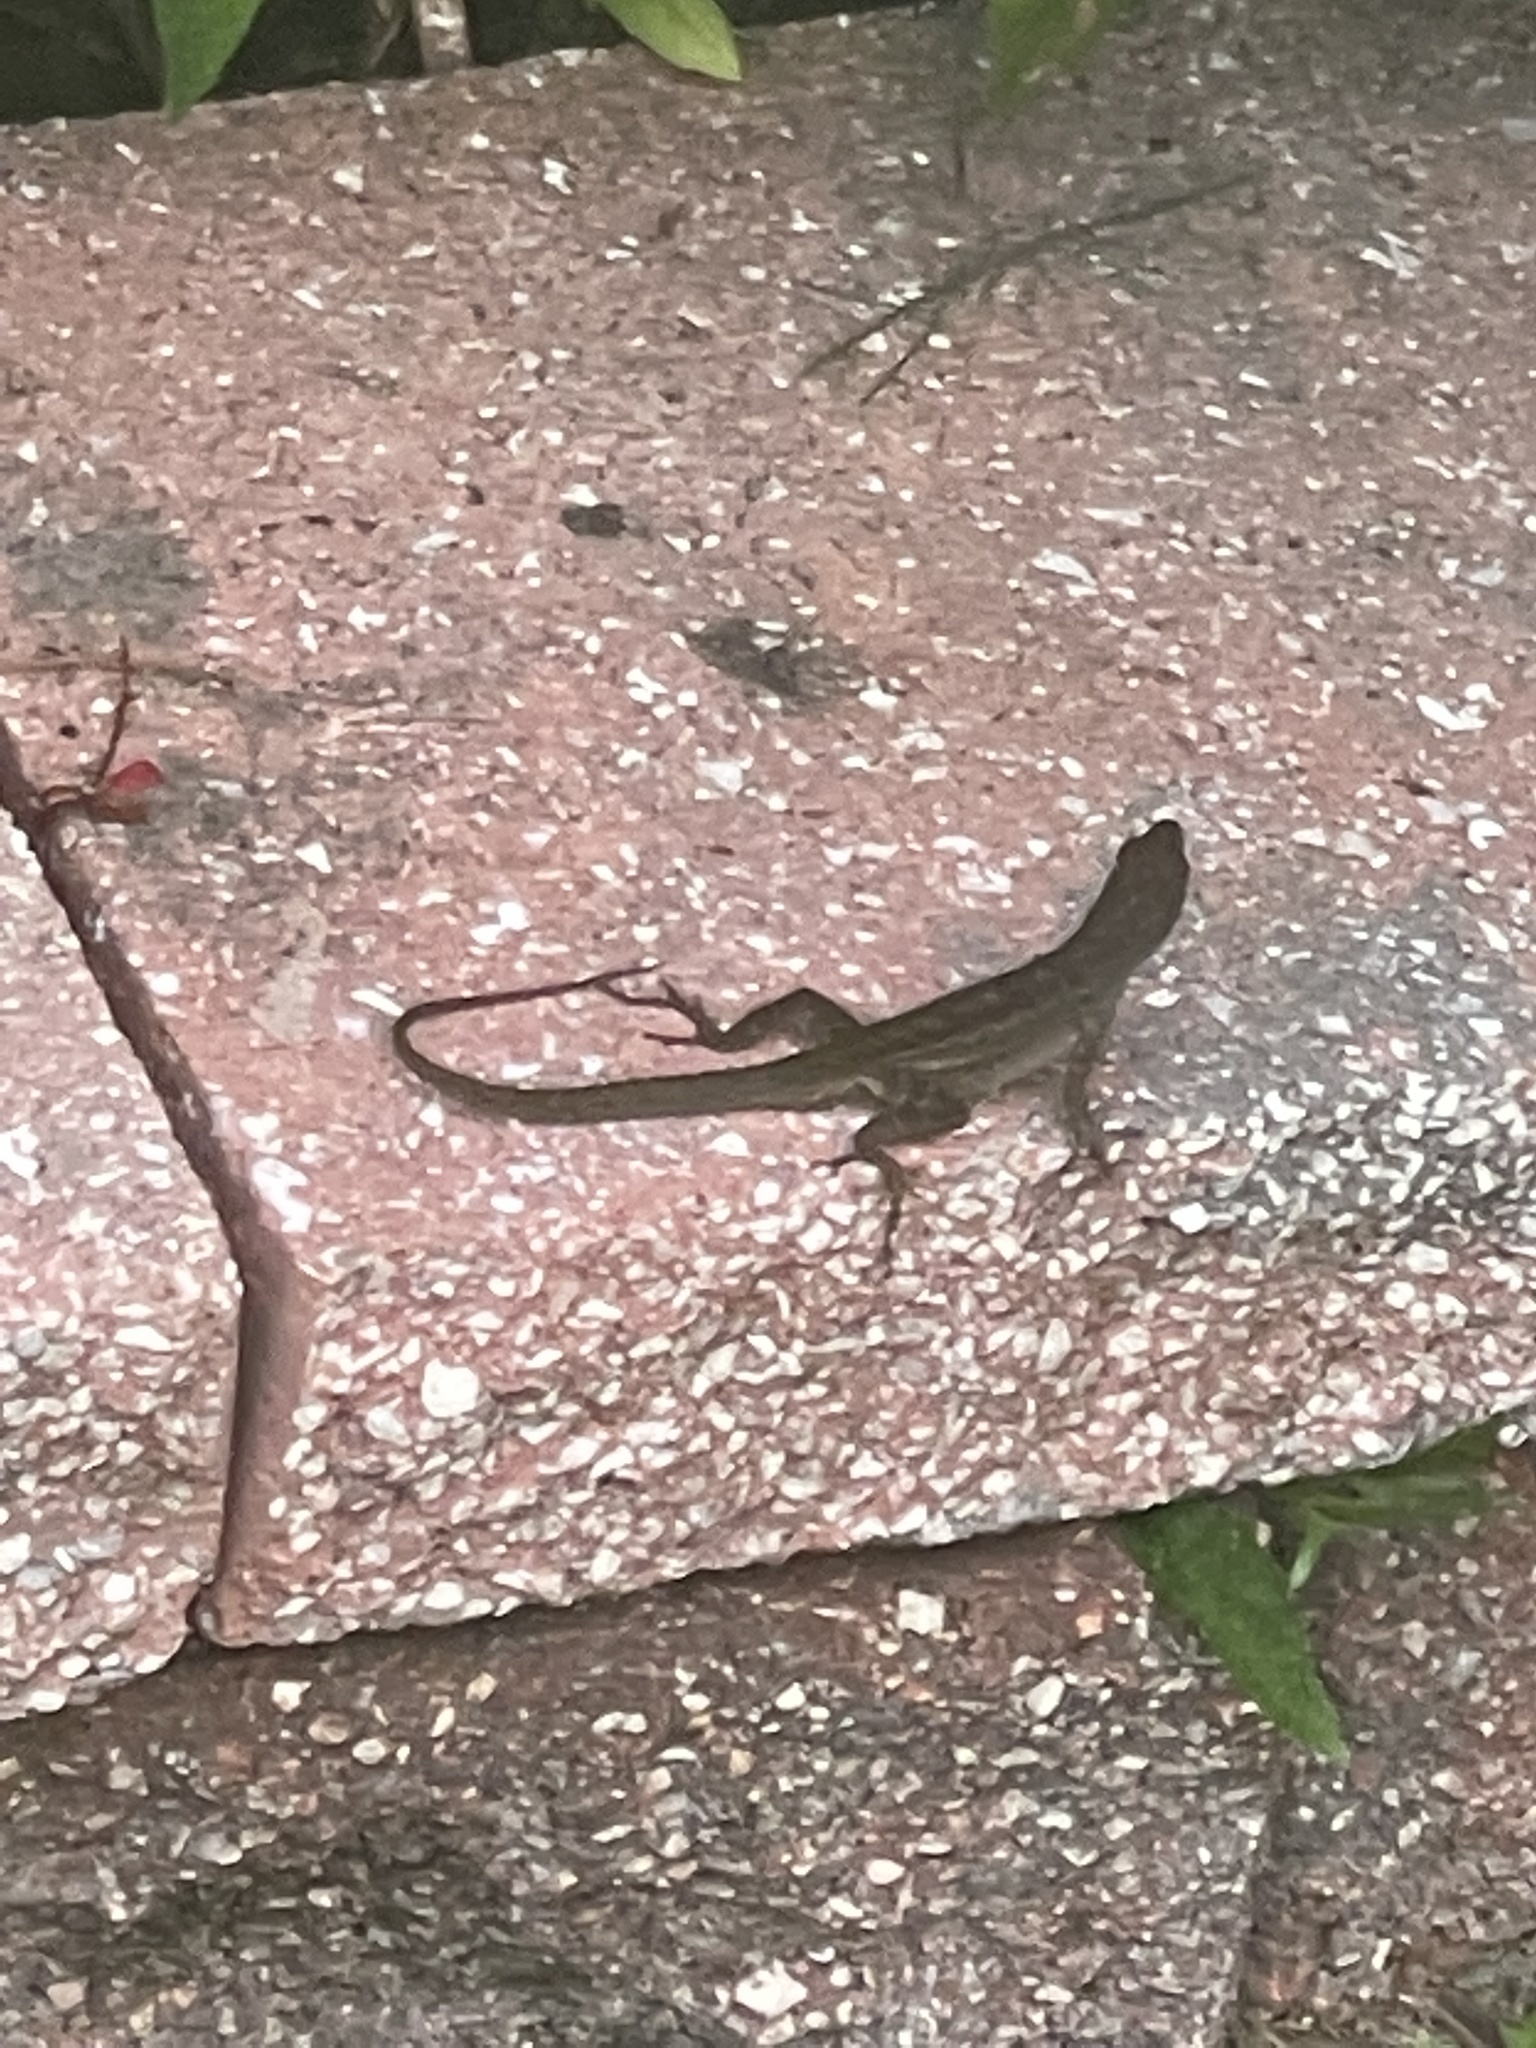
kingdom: Animalia
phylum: Chordata
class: Squamata
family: Dactyloidae
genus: Anolis
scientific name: Anolis sagrei
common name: Brown anole
